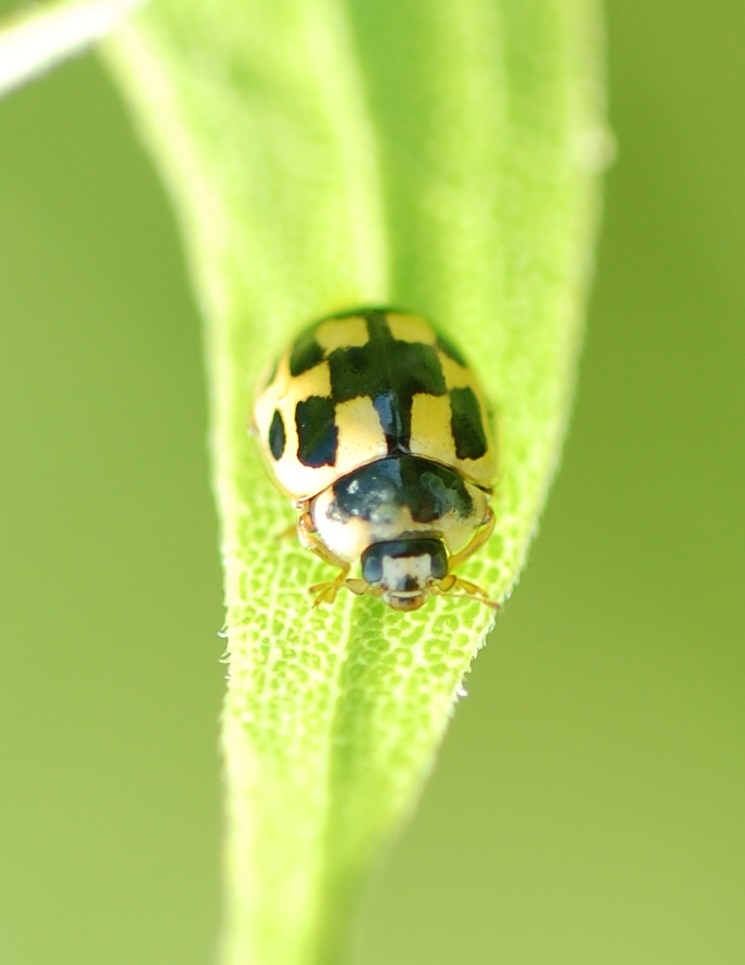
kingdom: Animalia
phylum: Arthropoda
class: Insecta
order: Coleoptera
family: Coccinellidae
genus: Propylaea
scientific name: Propylaea quatuordecimpunctata
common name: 14-spotted ladybird beetle
